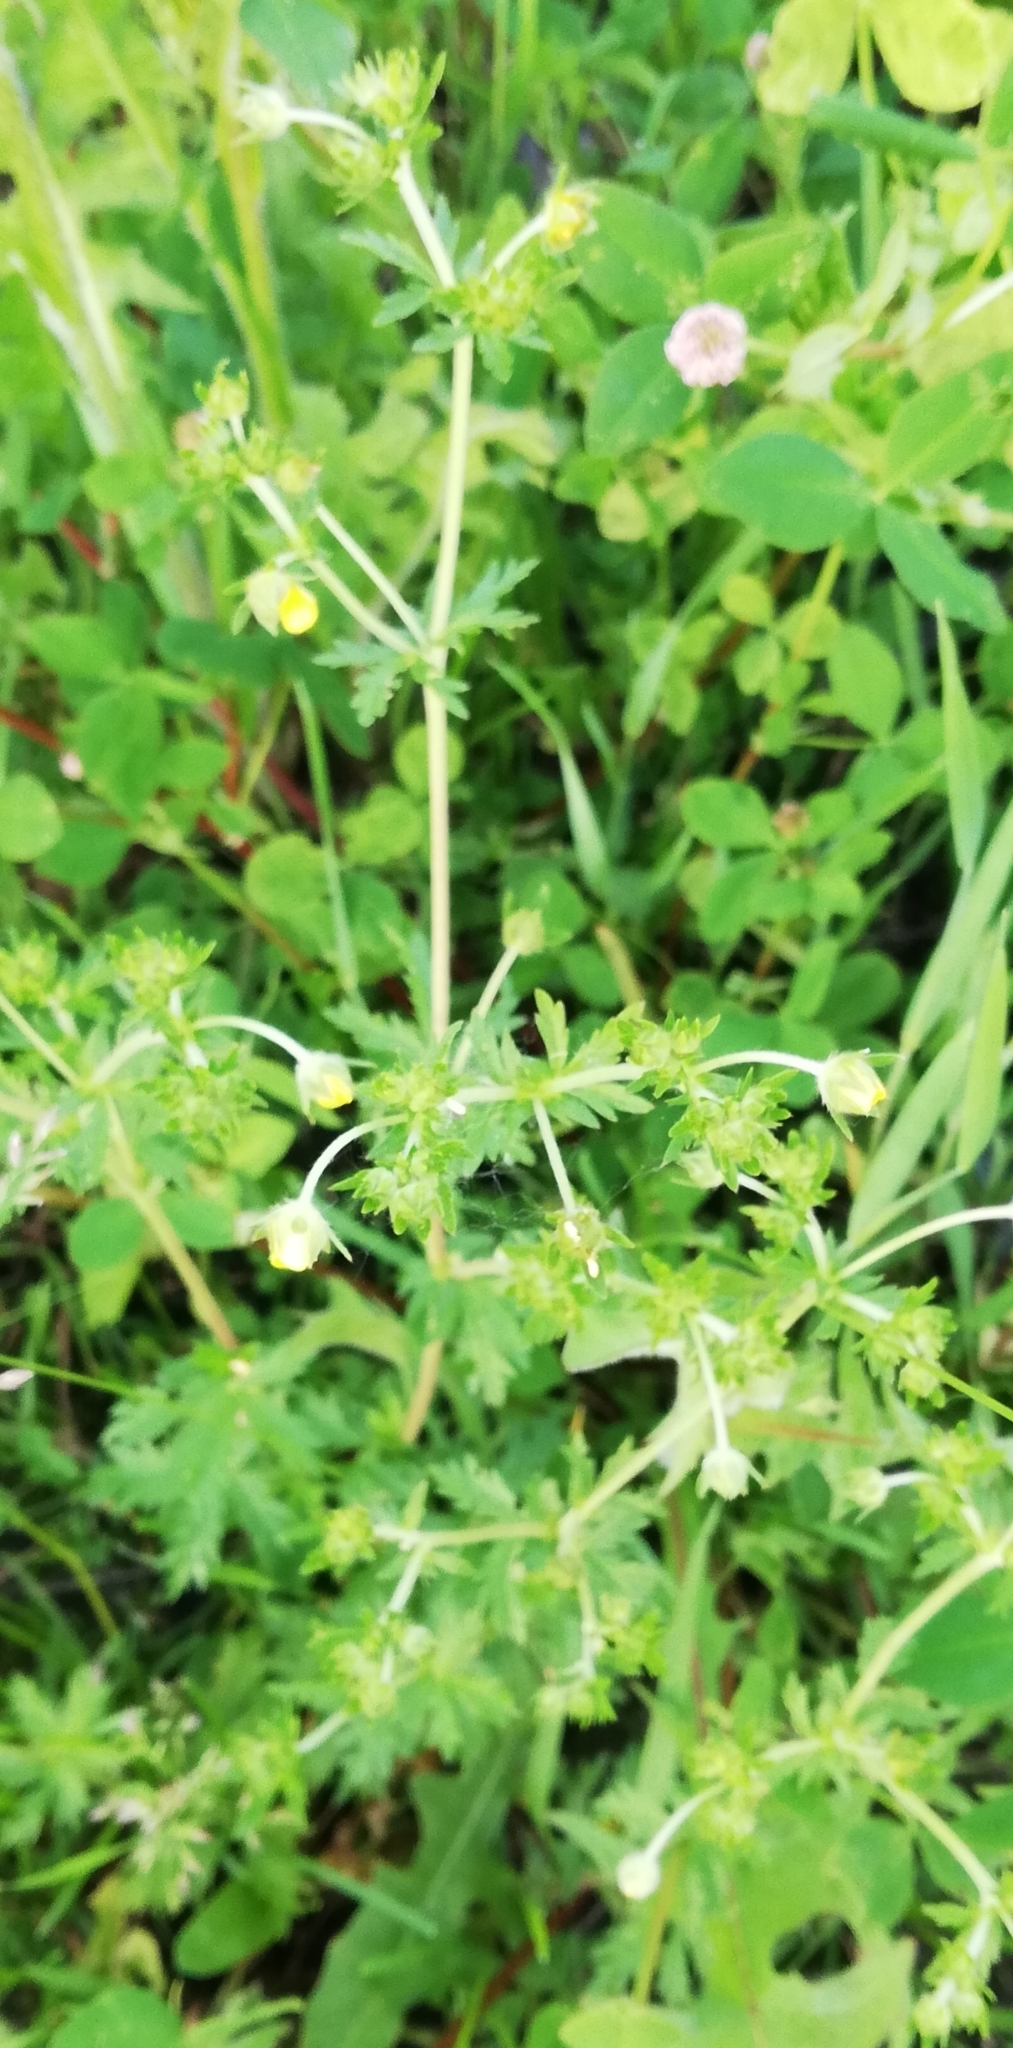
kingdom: Plantae
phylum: Tracheophyta
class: Magnoliopsida
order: Rosales
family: Rosaceae
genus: Potentilla
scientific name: Potentilla argentea
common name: Hoary cinquefoil
